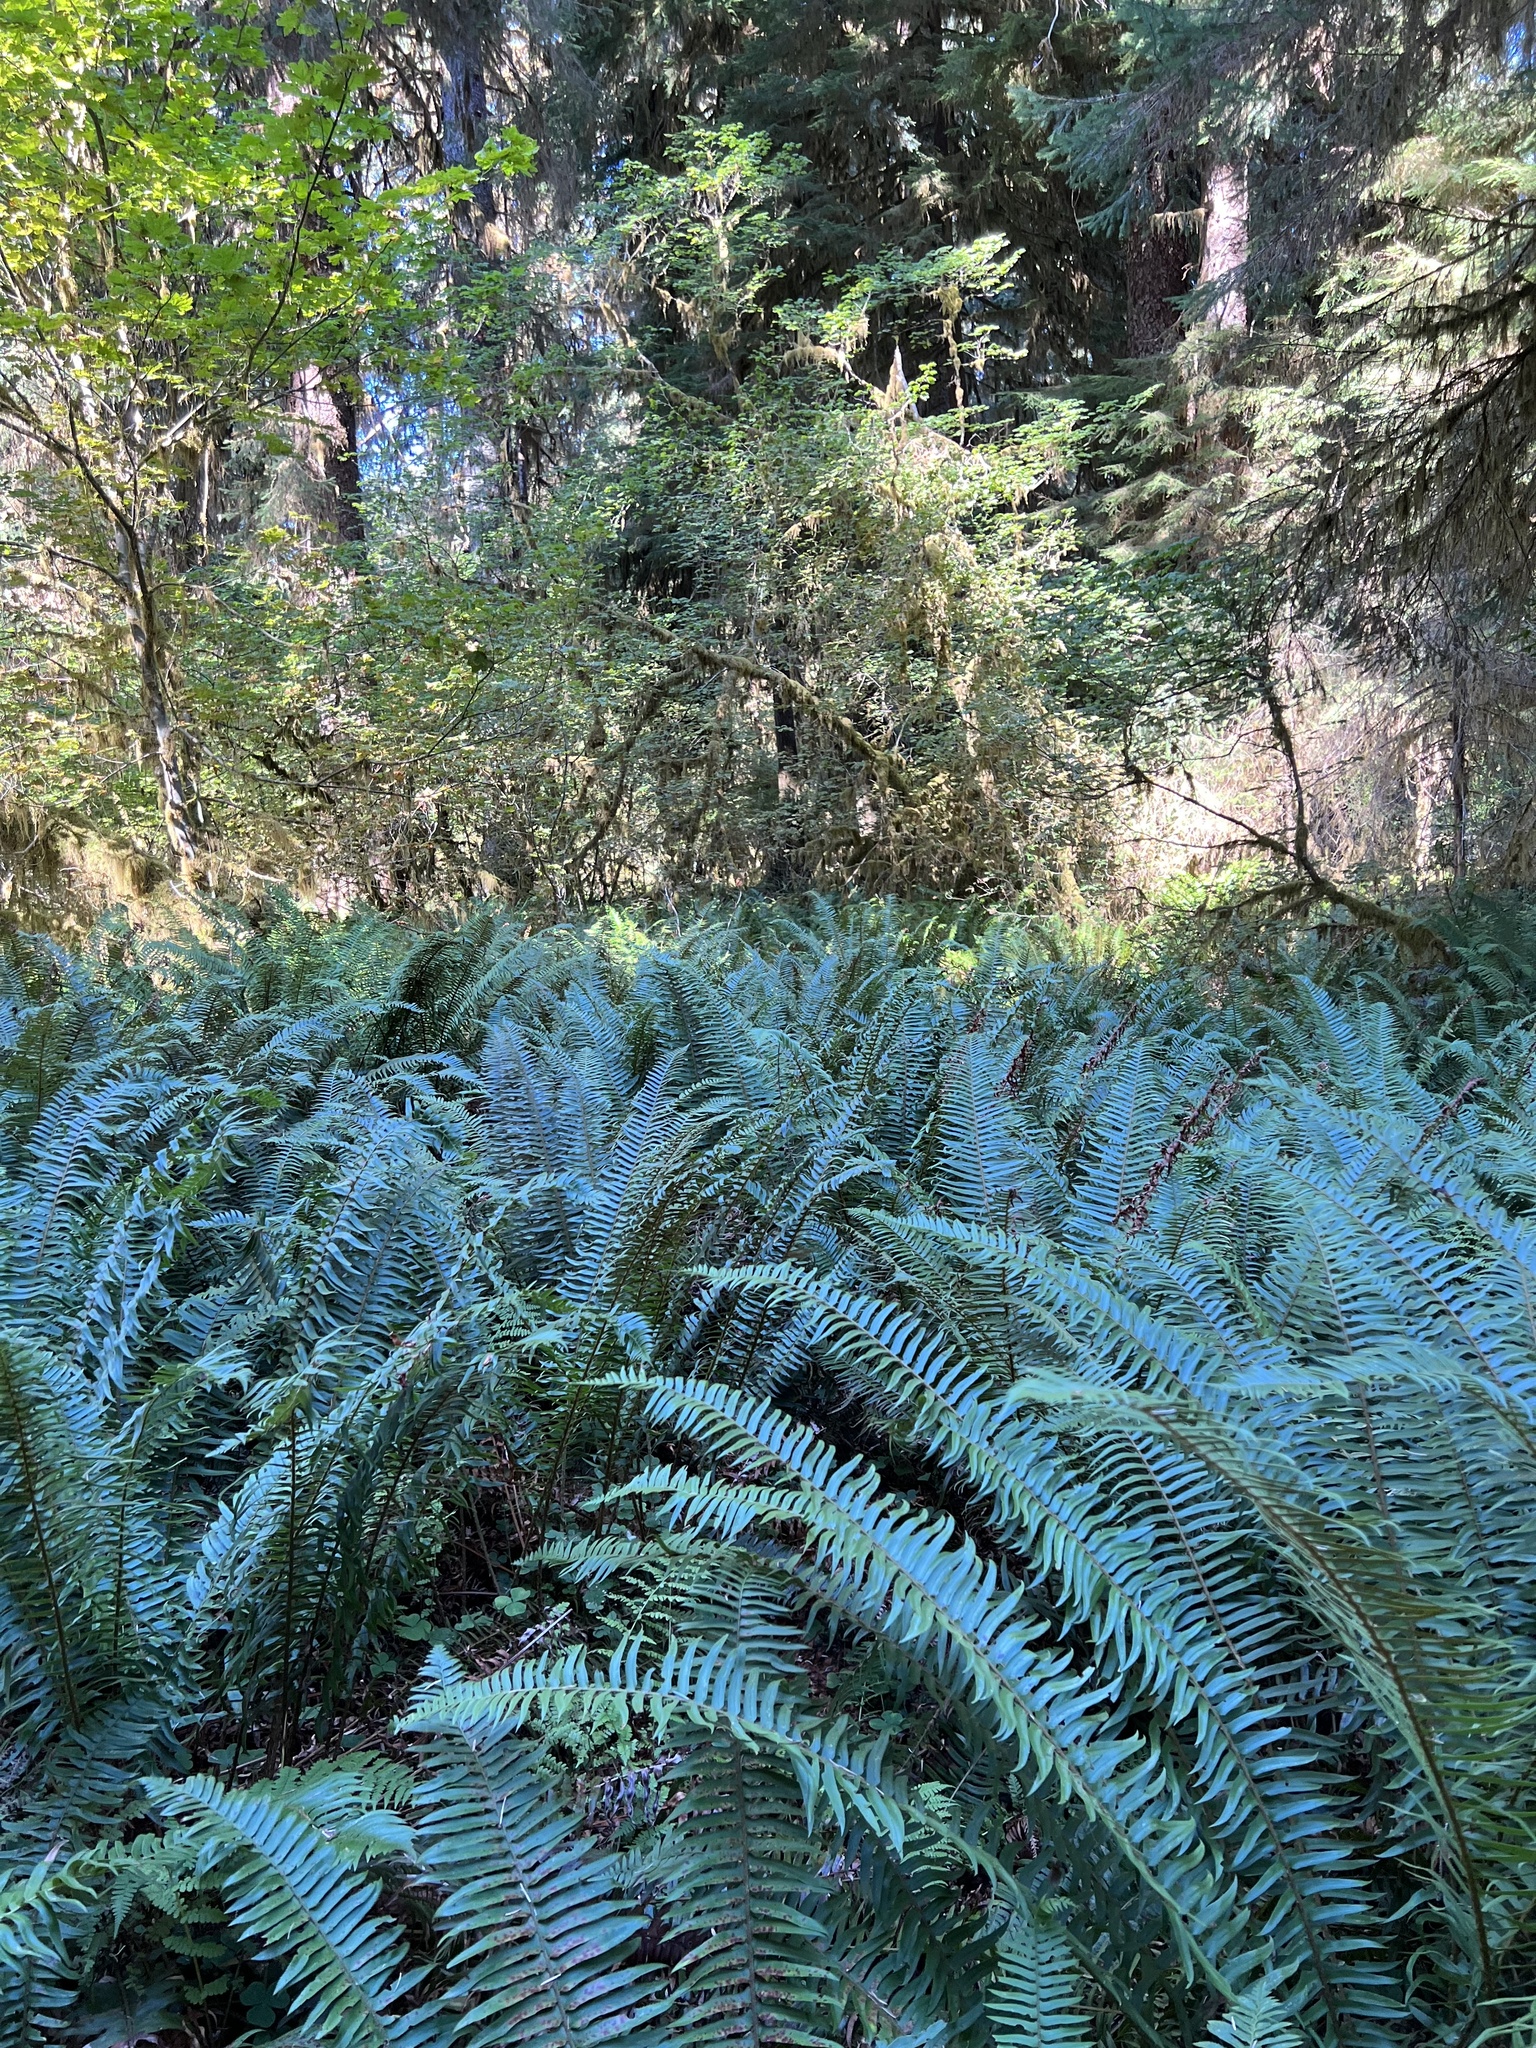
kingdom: Plantae
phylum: Tracheophyta
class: Polypodiopsida
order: Polypodiales
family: Dryopteridaceae
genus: Polystichum
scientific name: Polystichum munitum
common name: Western sword-fern
